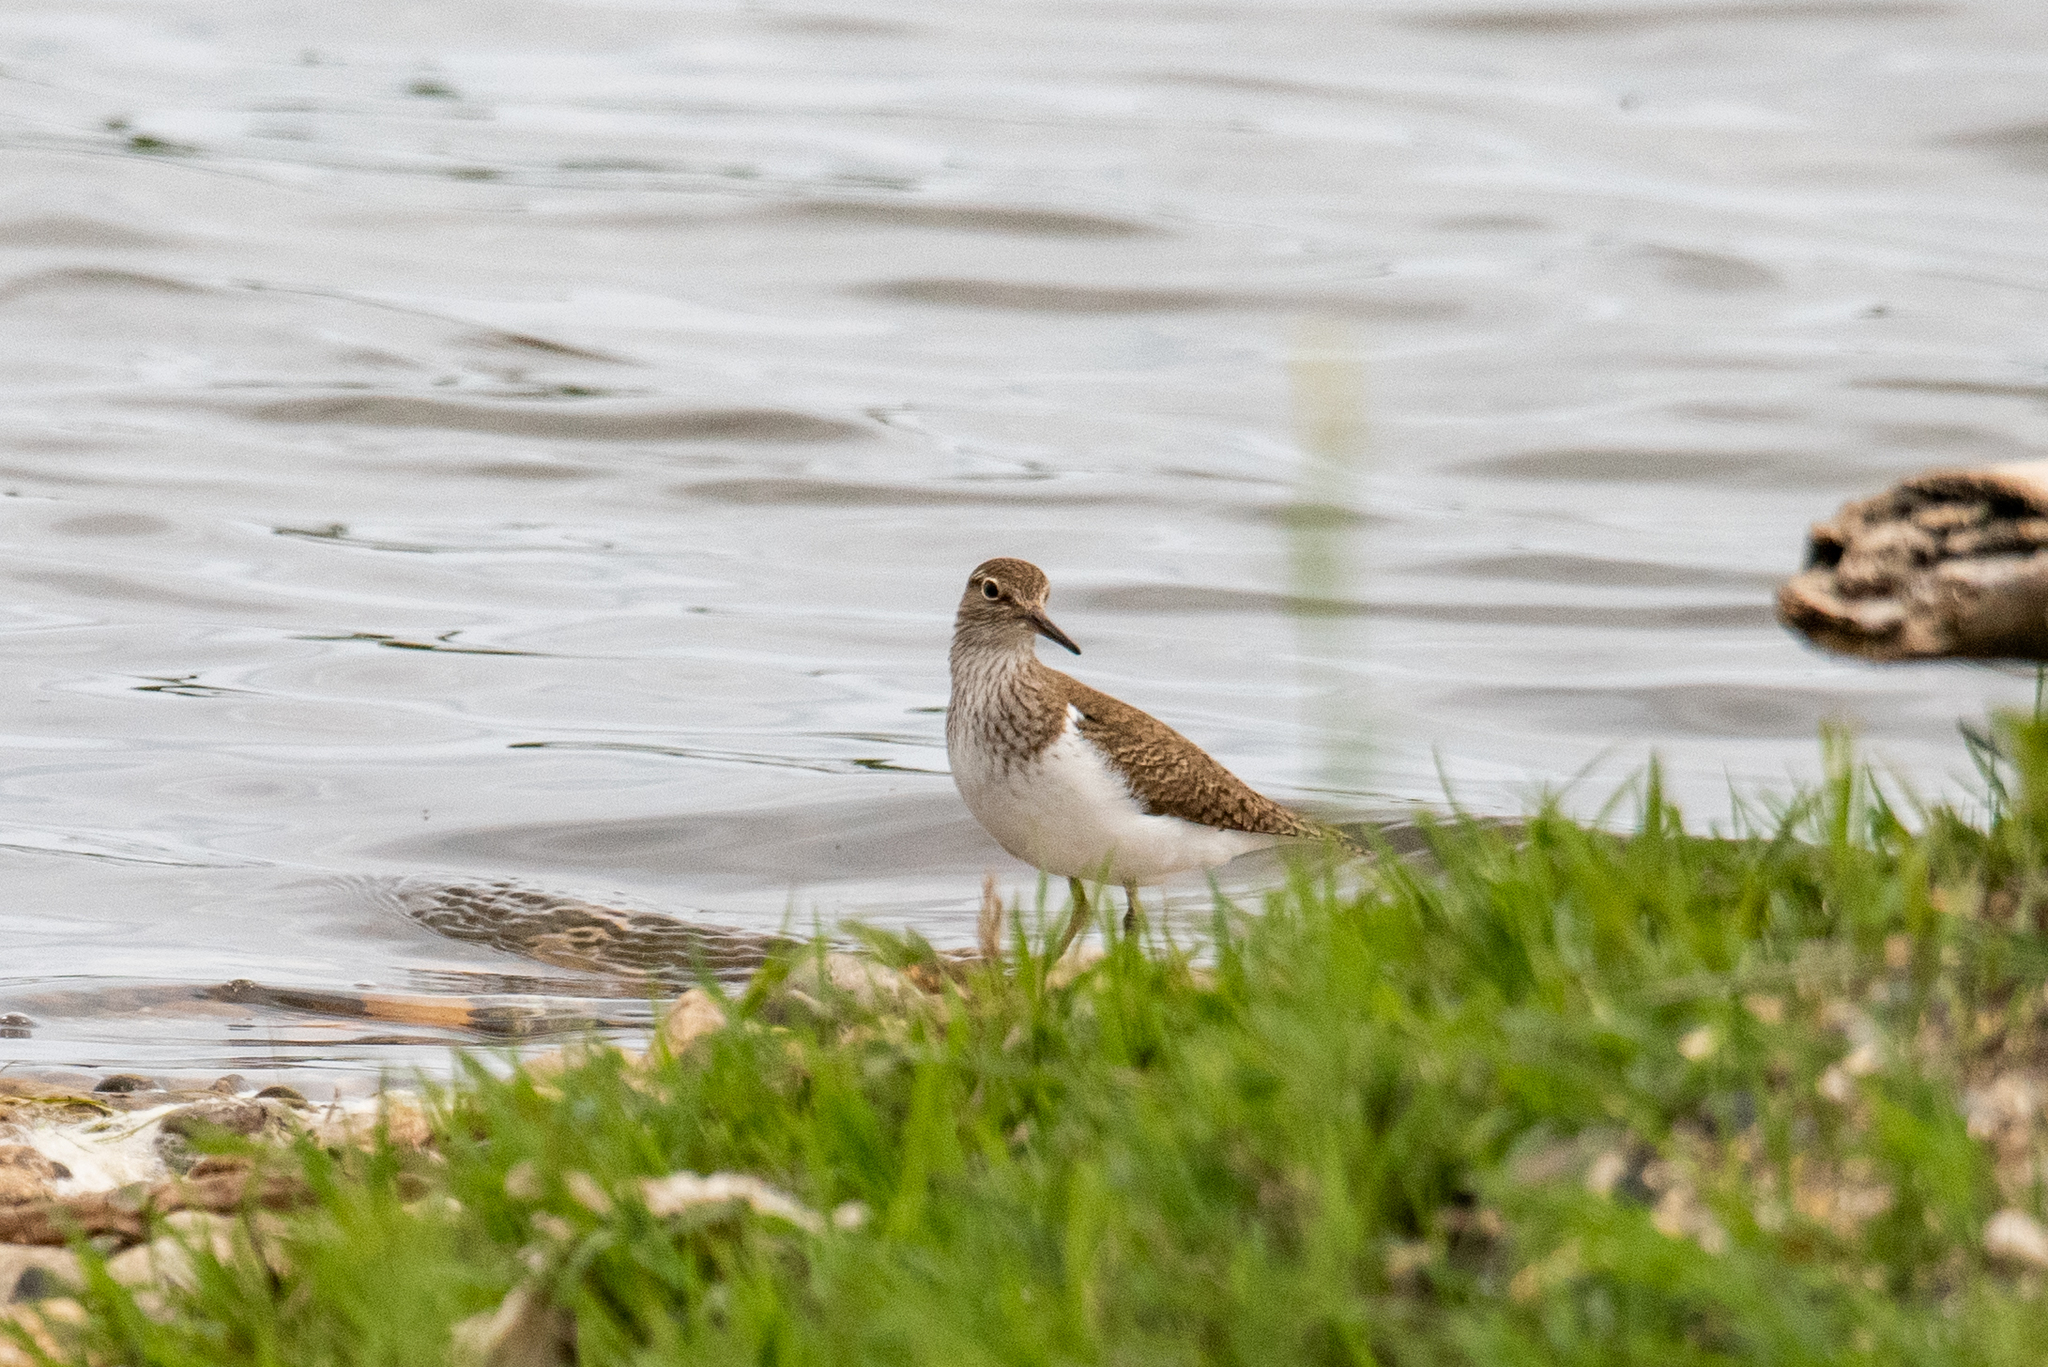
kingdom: Animalia
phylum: Chordata
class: Aves
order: Charadriiformes
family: Scolopacidae
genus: Actitis
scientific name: Actitis hypoleucos
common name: Common sandpiper
